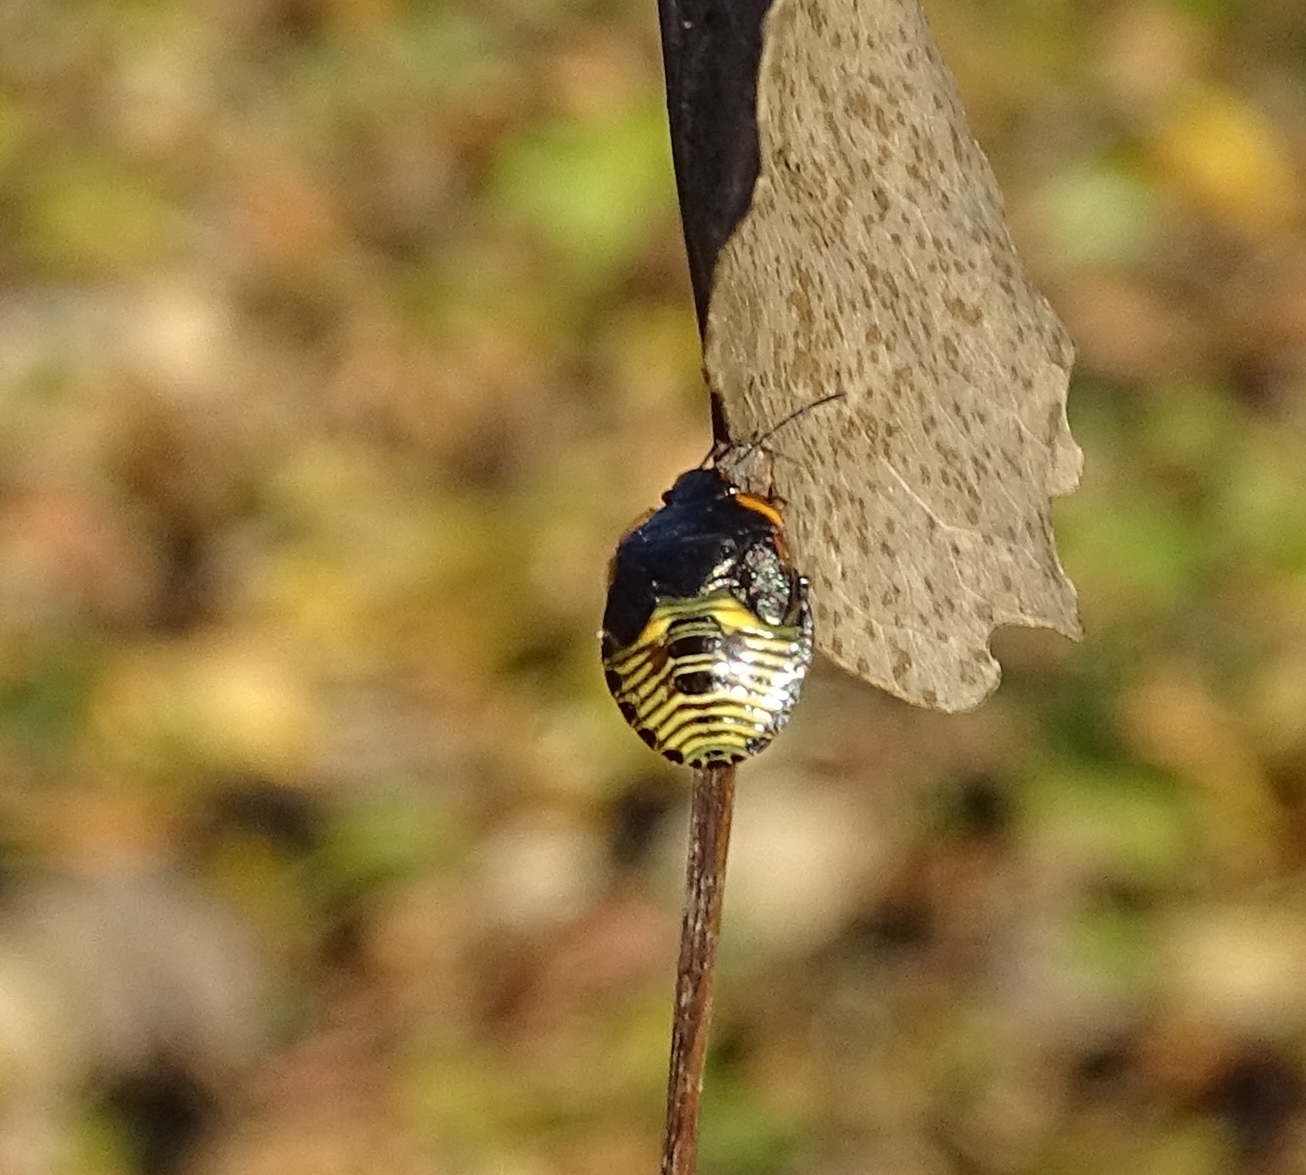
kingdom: Animalia
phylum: Arthropoda
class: Insecta
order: Hemiptera
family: Pentatomidae
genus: Chinavia
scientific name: Chinavia hilaris
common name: Green stink bug
